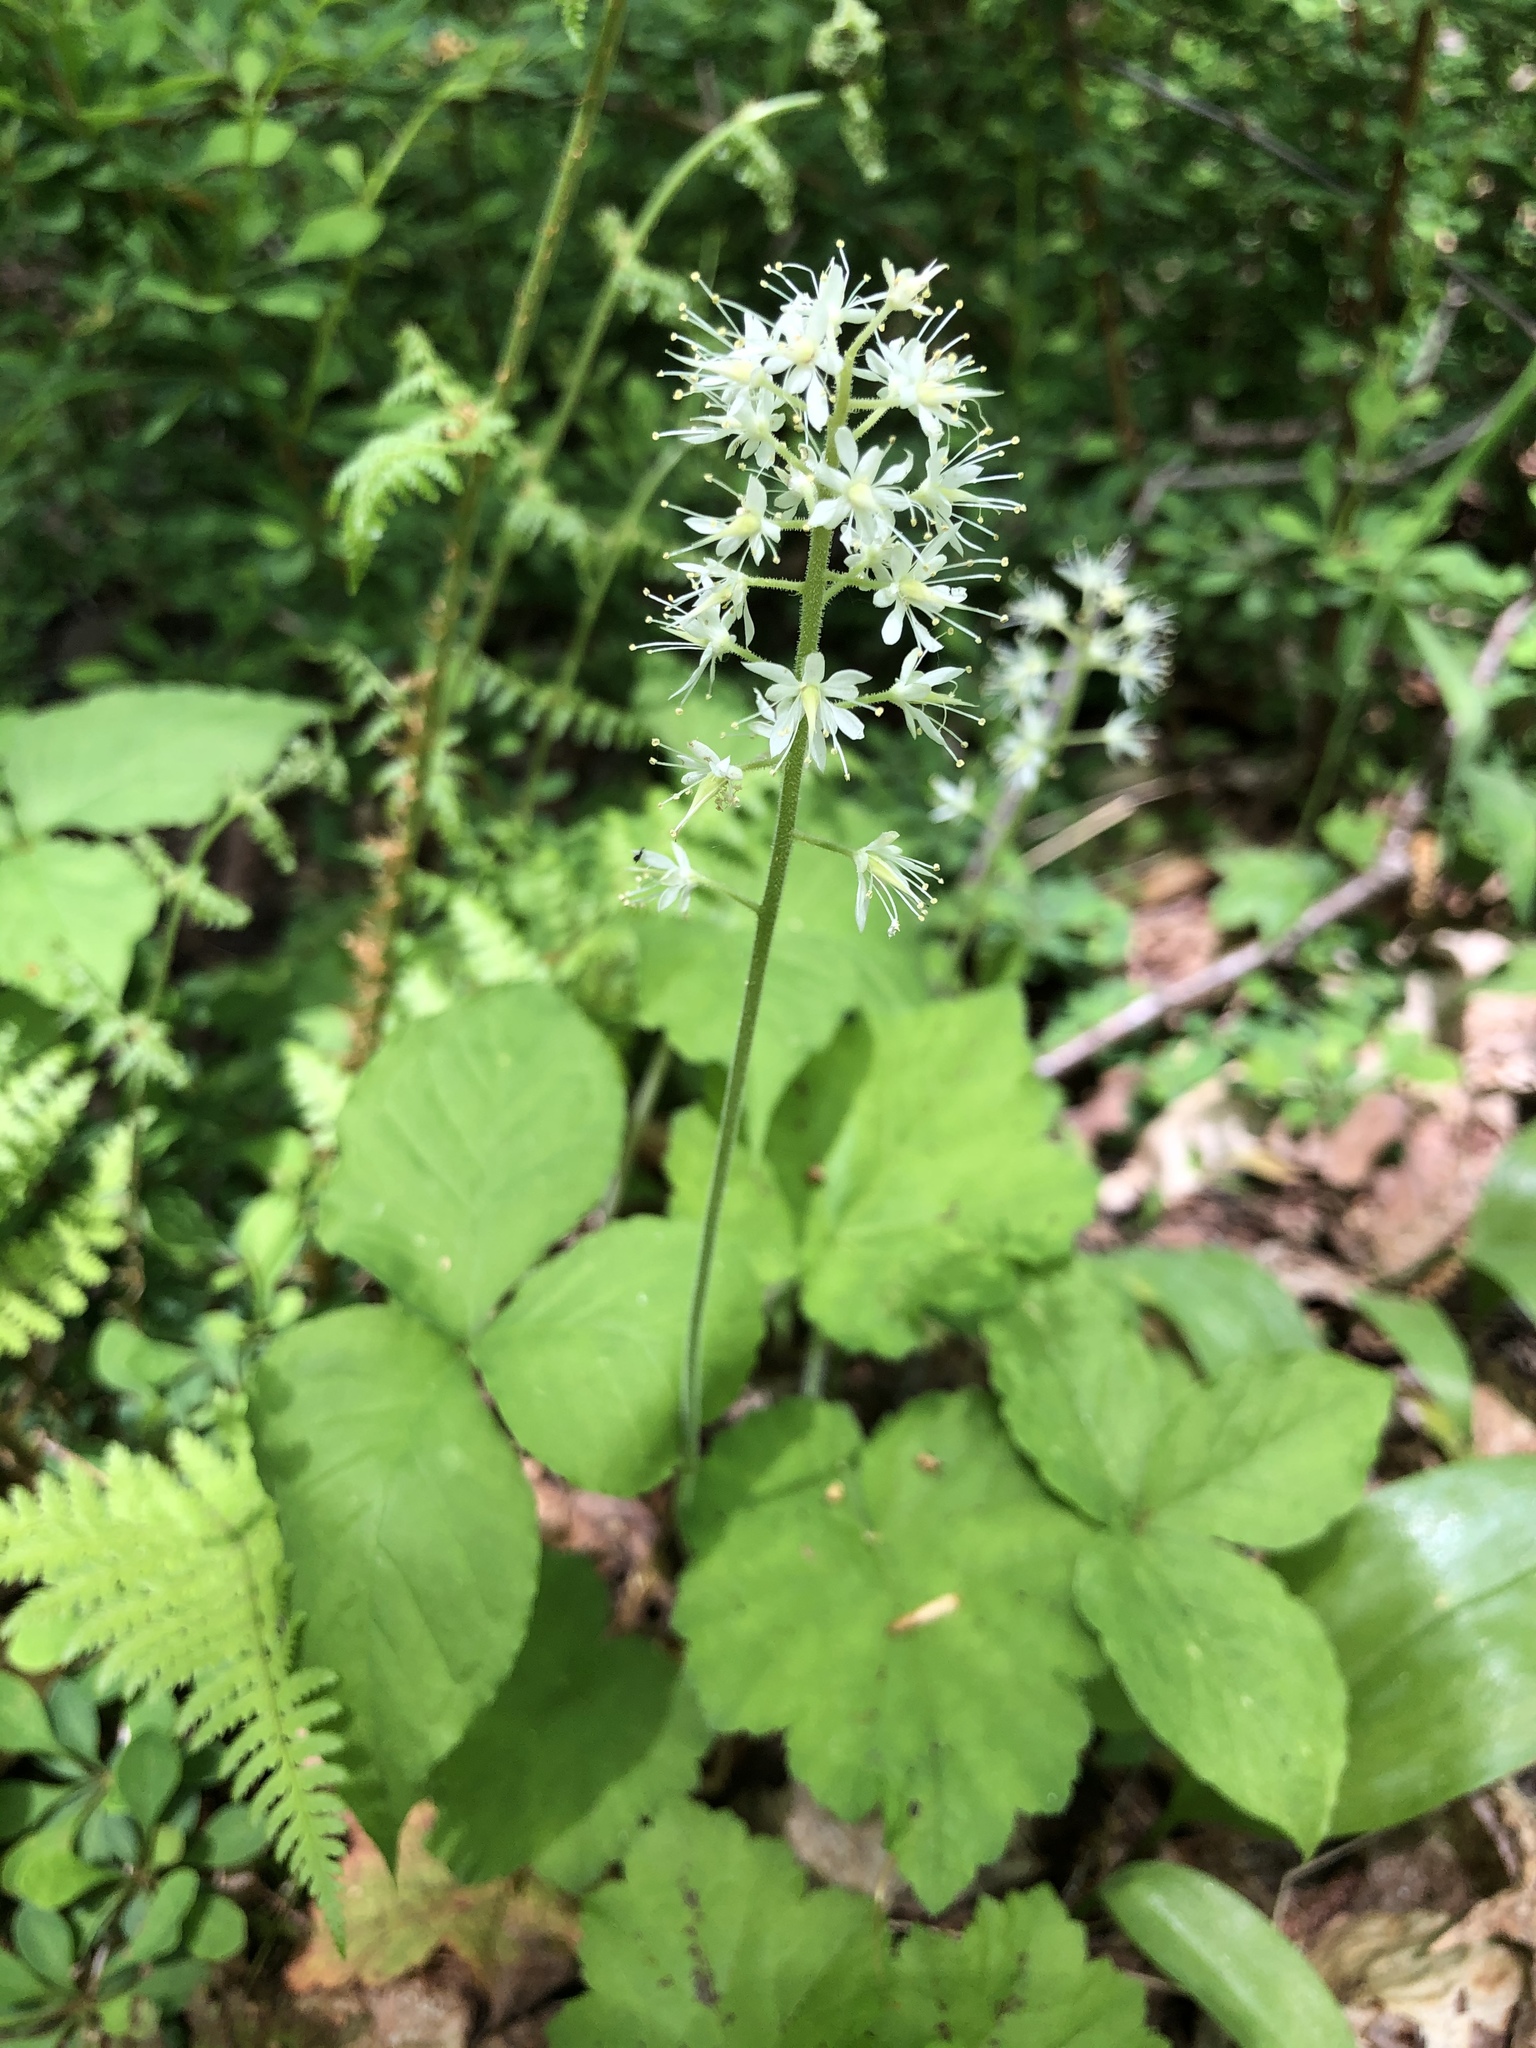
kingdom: Plantae
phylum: Tracheophyta
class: Magnoliopsida
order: Saxifragales
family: Saxifragaceae
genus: Tiarella
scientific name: Tiarella stolonifera
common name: Stoloniferous foamflower
